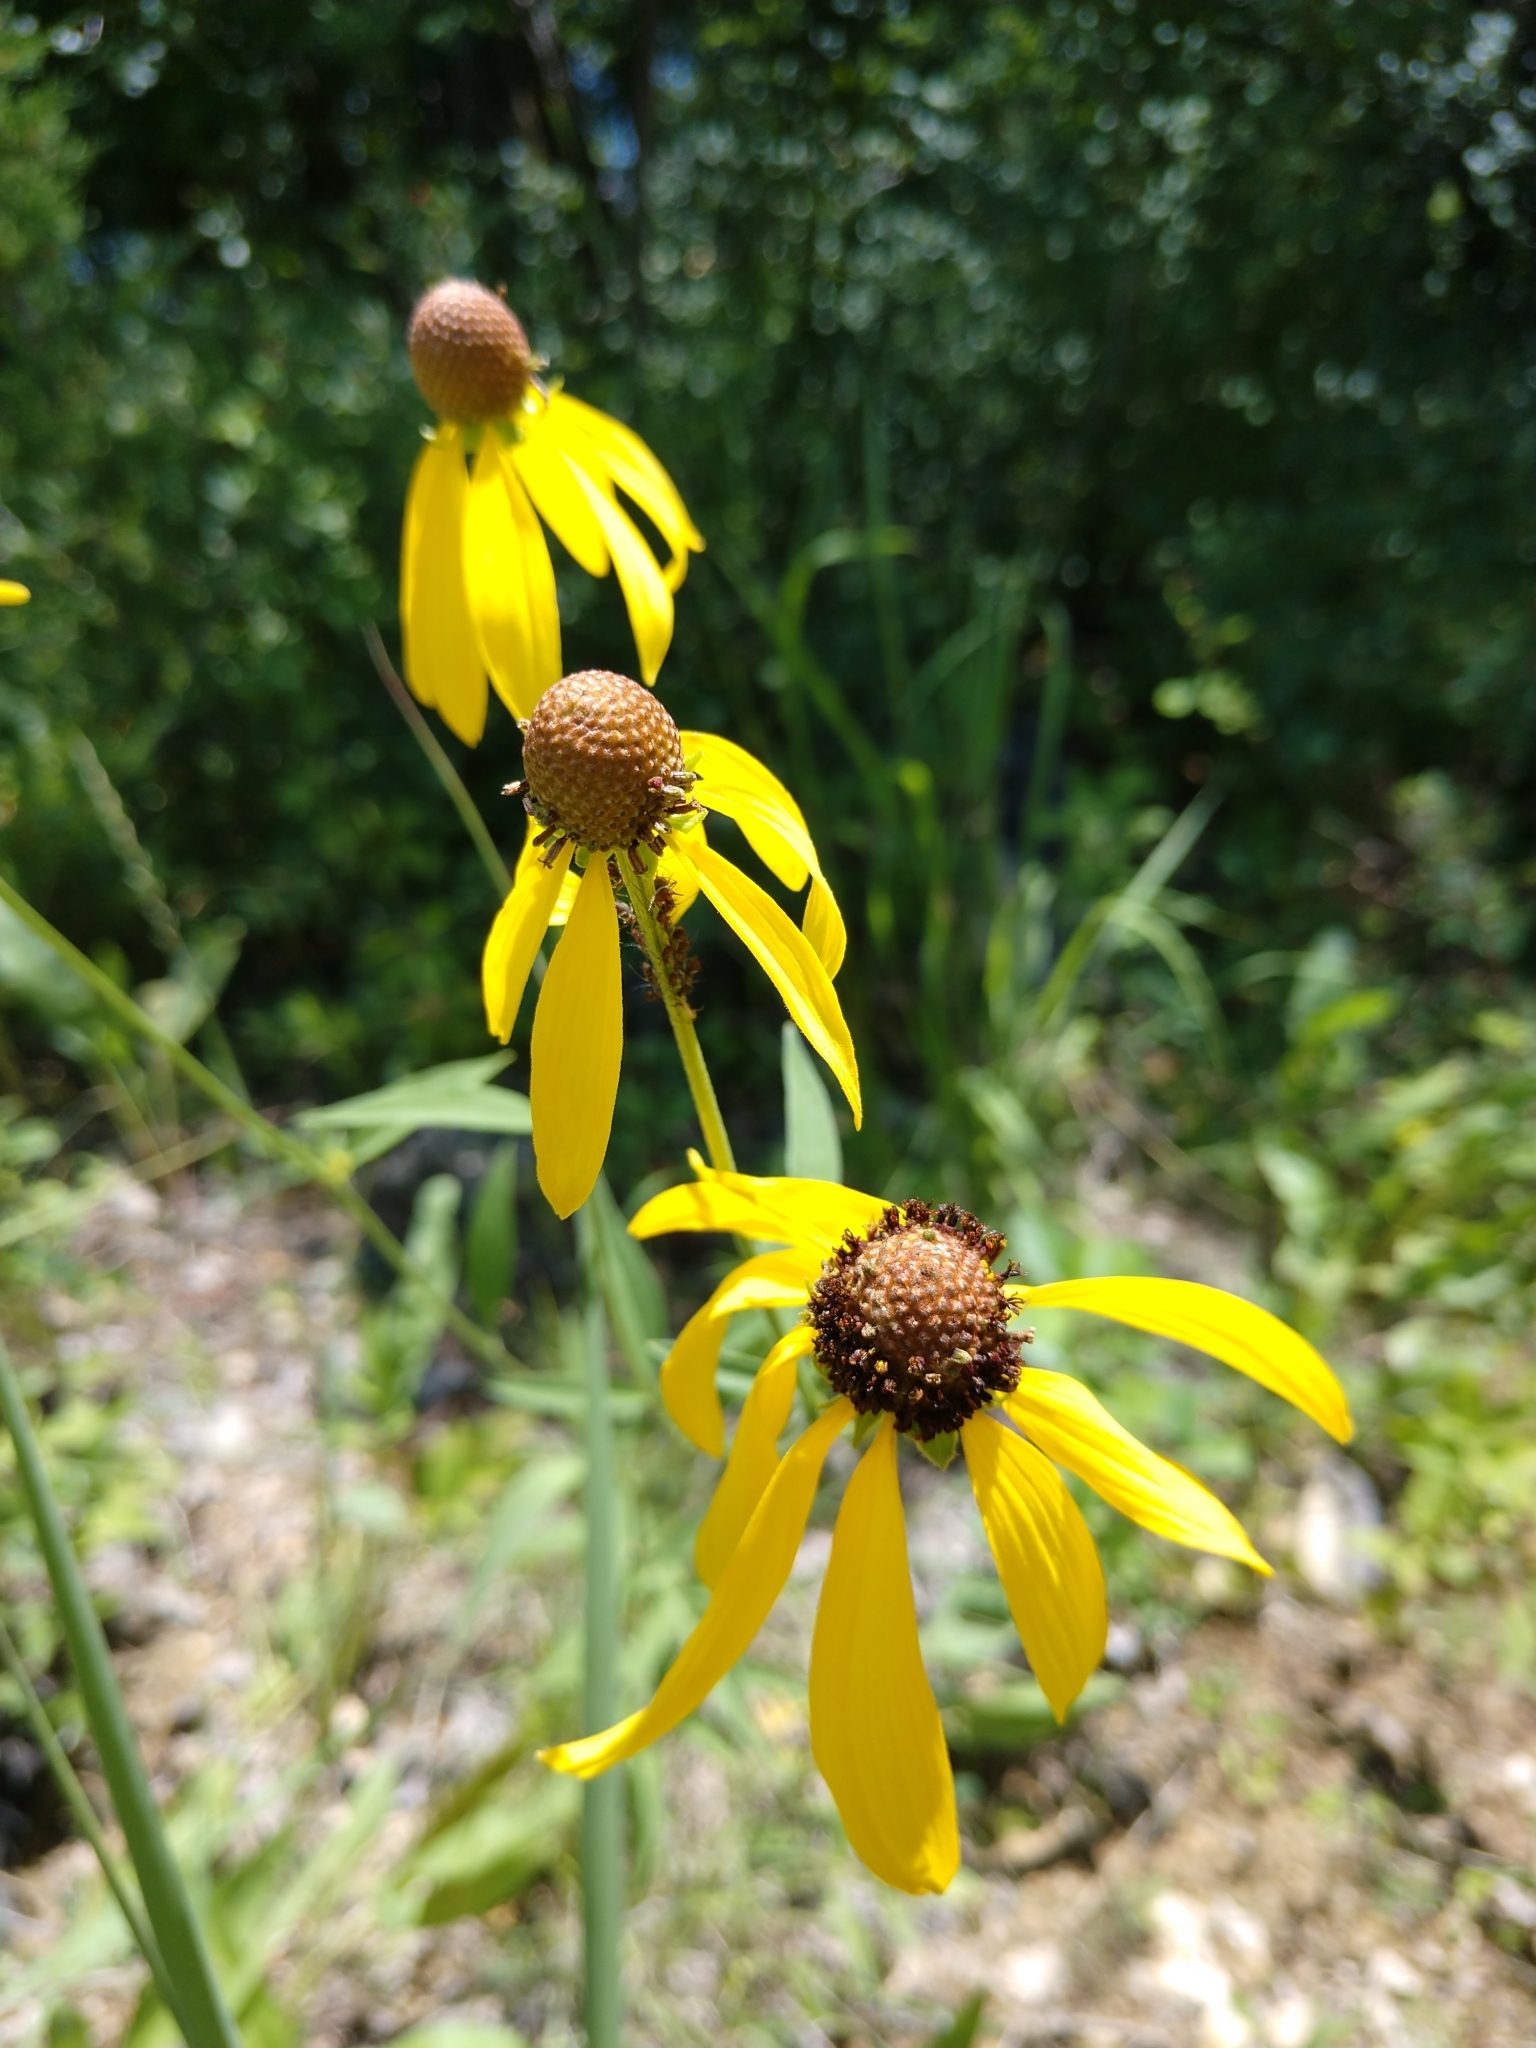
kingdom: Plantae
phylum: Tracheophyta
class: Magnoliopsida
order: Asterales
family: Asteraceae
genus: Ratibida
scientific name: Ratibida pinnata
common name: Drooping prairie-coneflower
